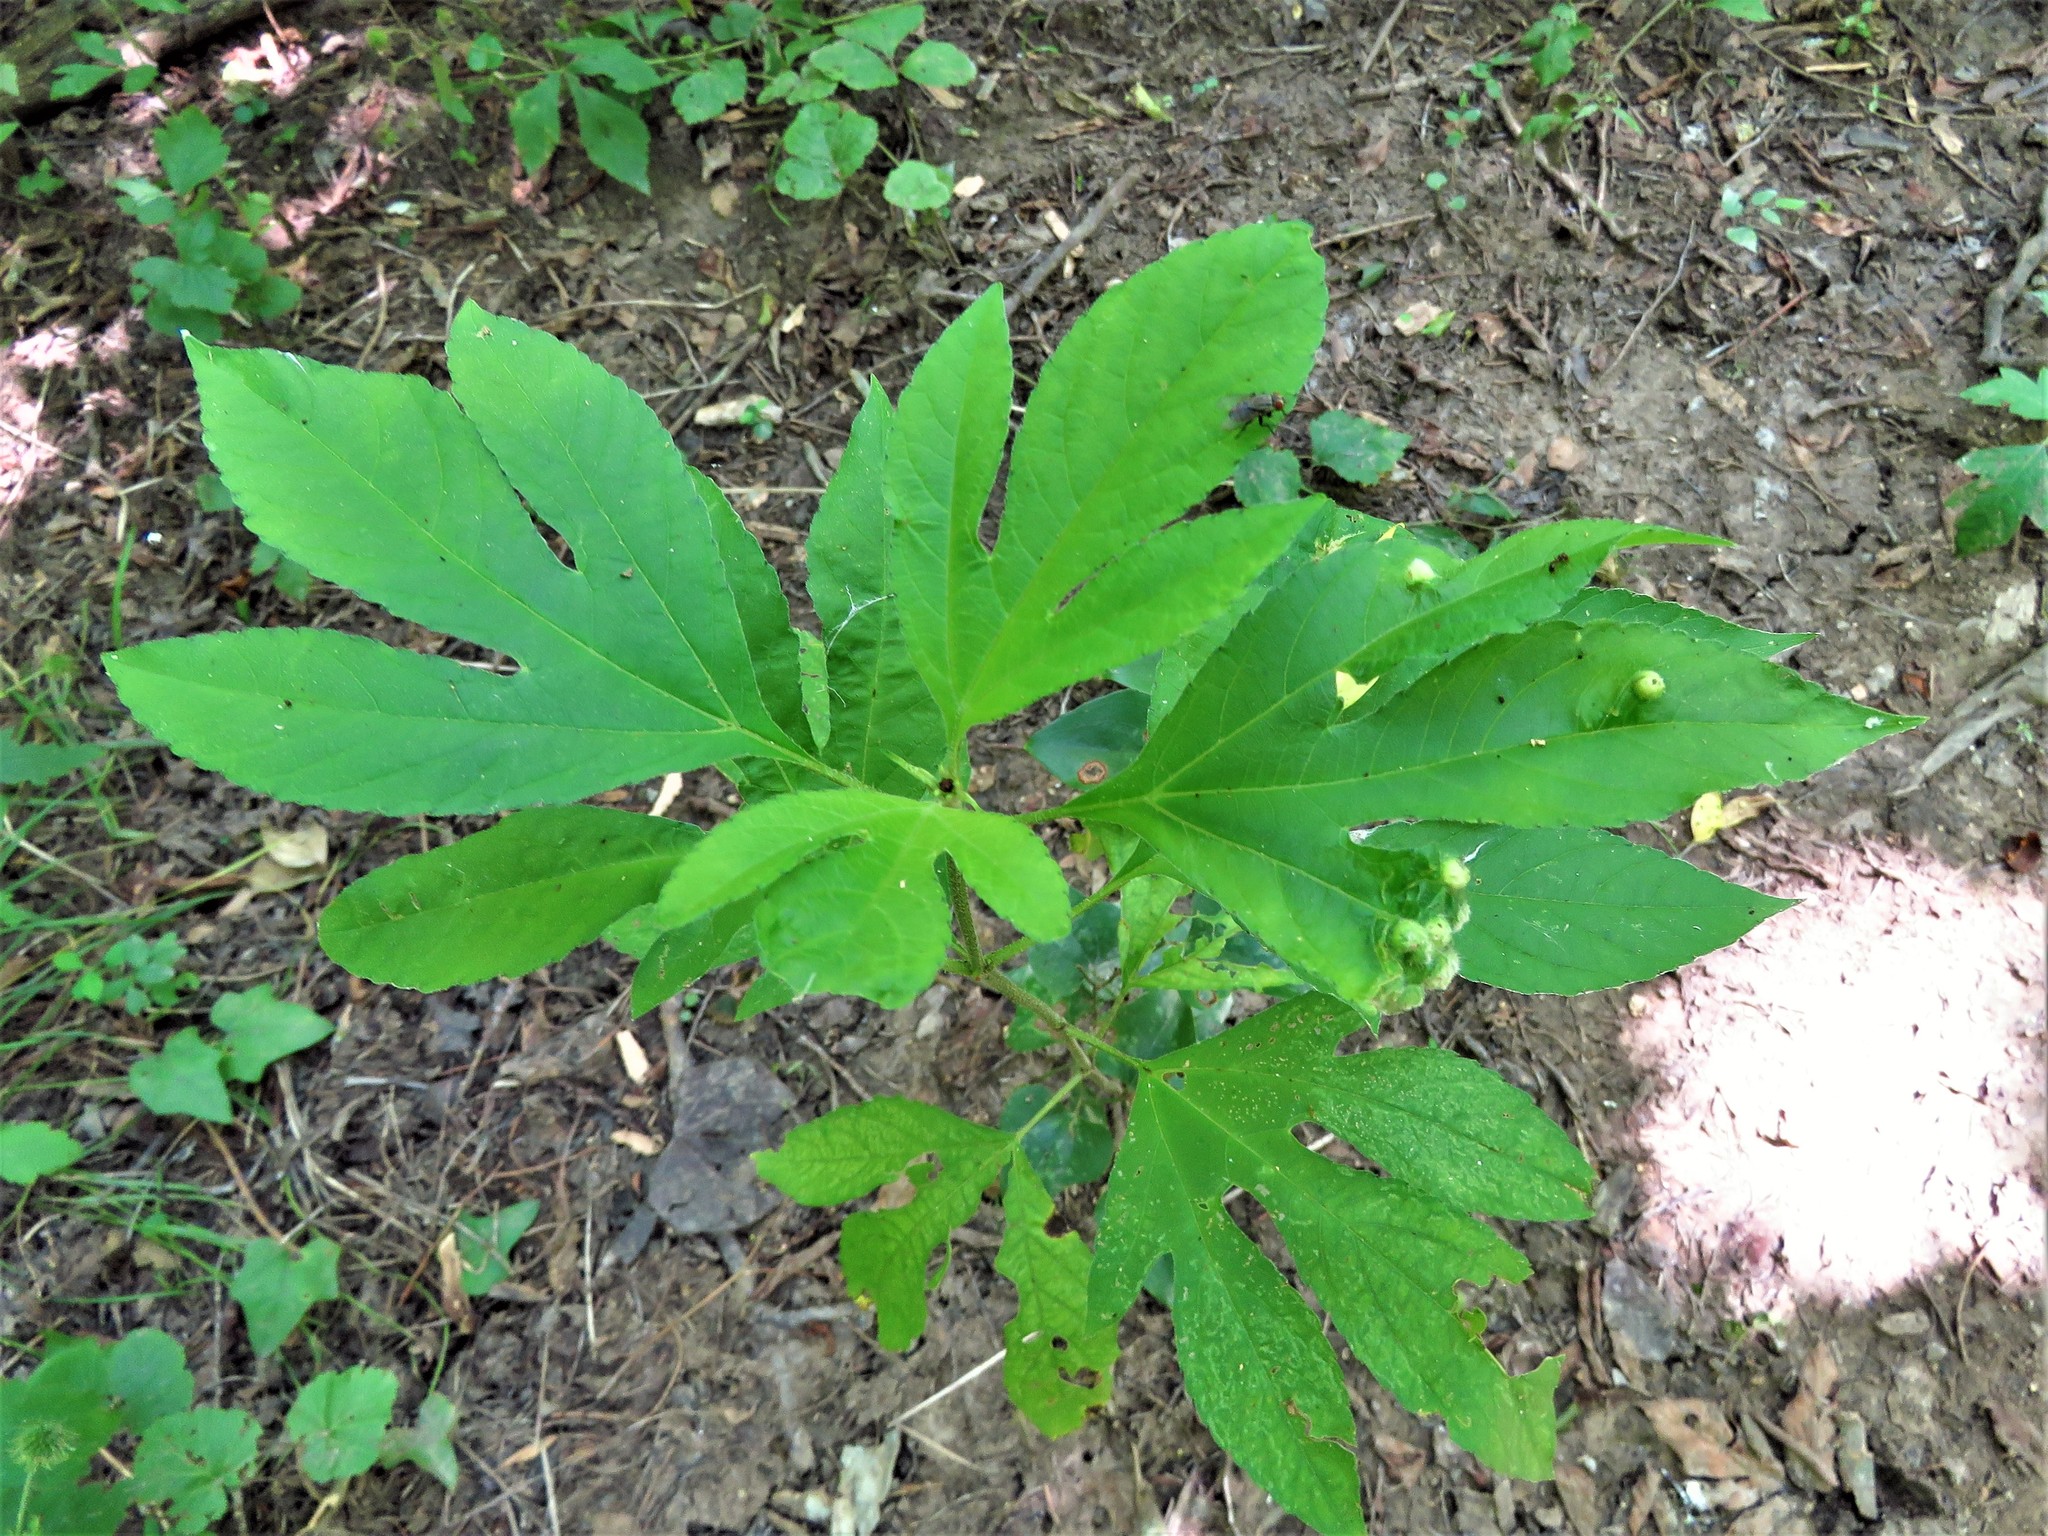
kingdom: Plantae
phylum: Tracheophyta
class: Magnoliopsida
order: Asterales
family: Asteraceae
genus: Ambrosia
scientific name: Ambrosia trifida
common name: Giant ragweed
